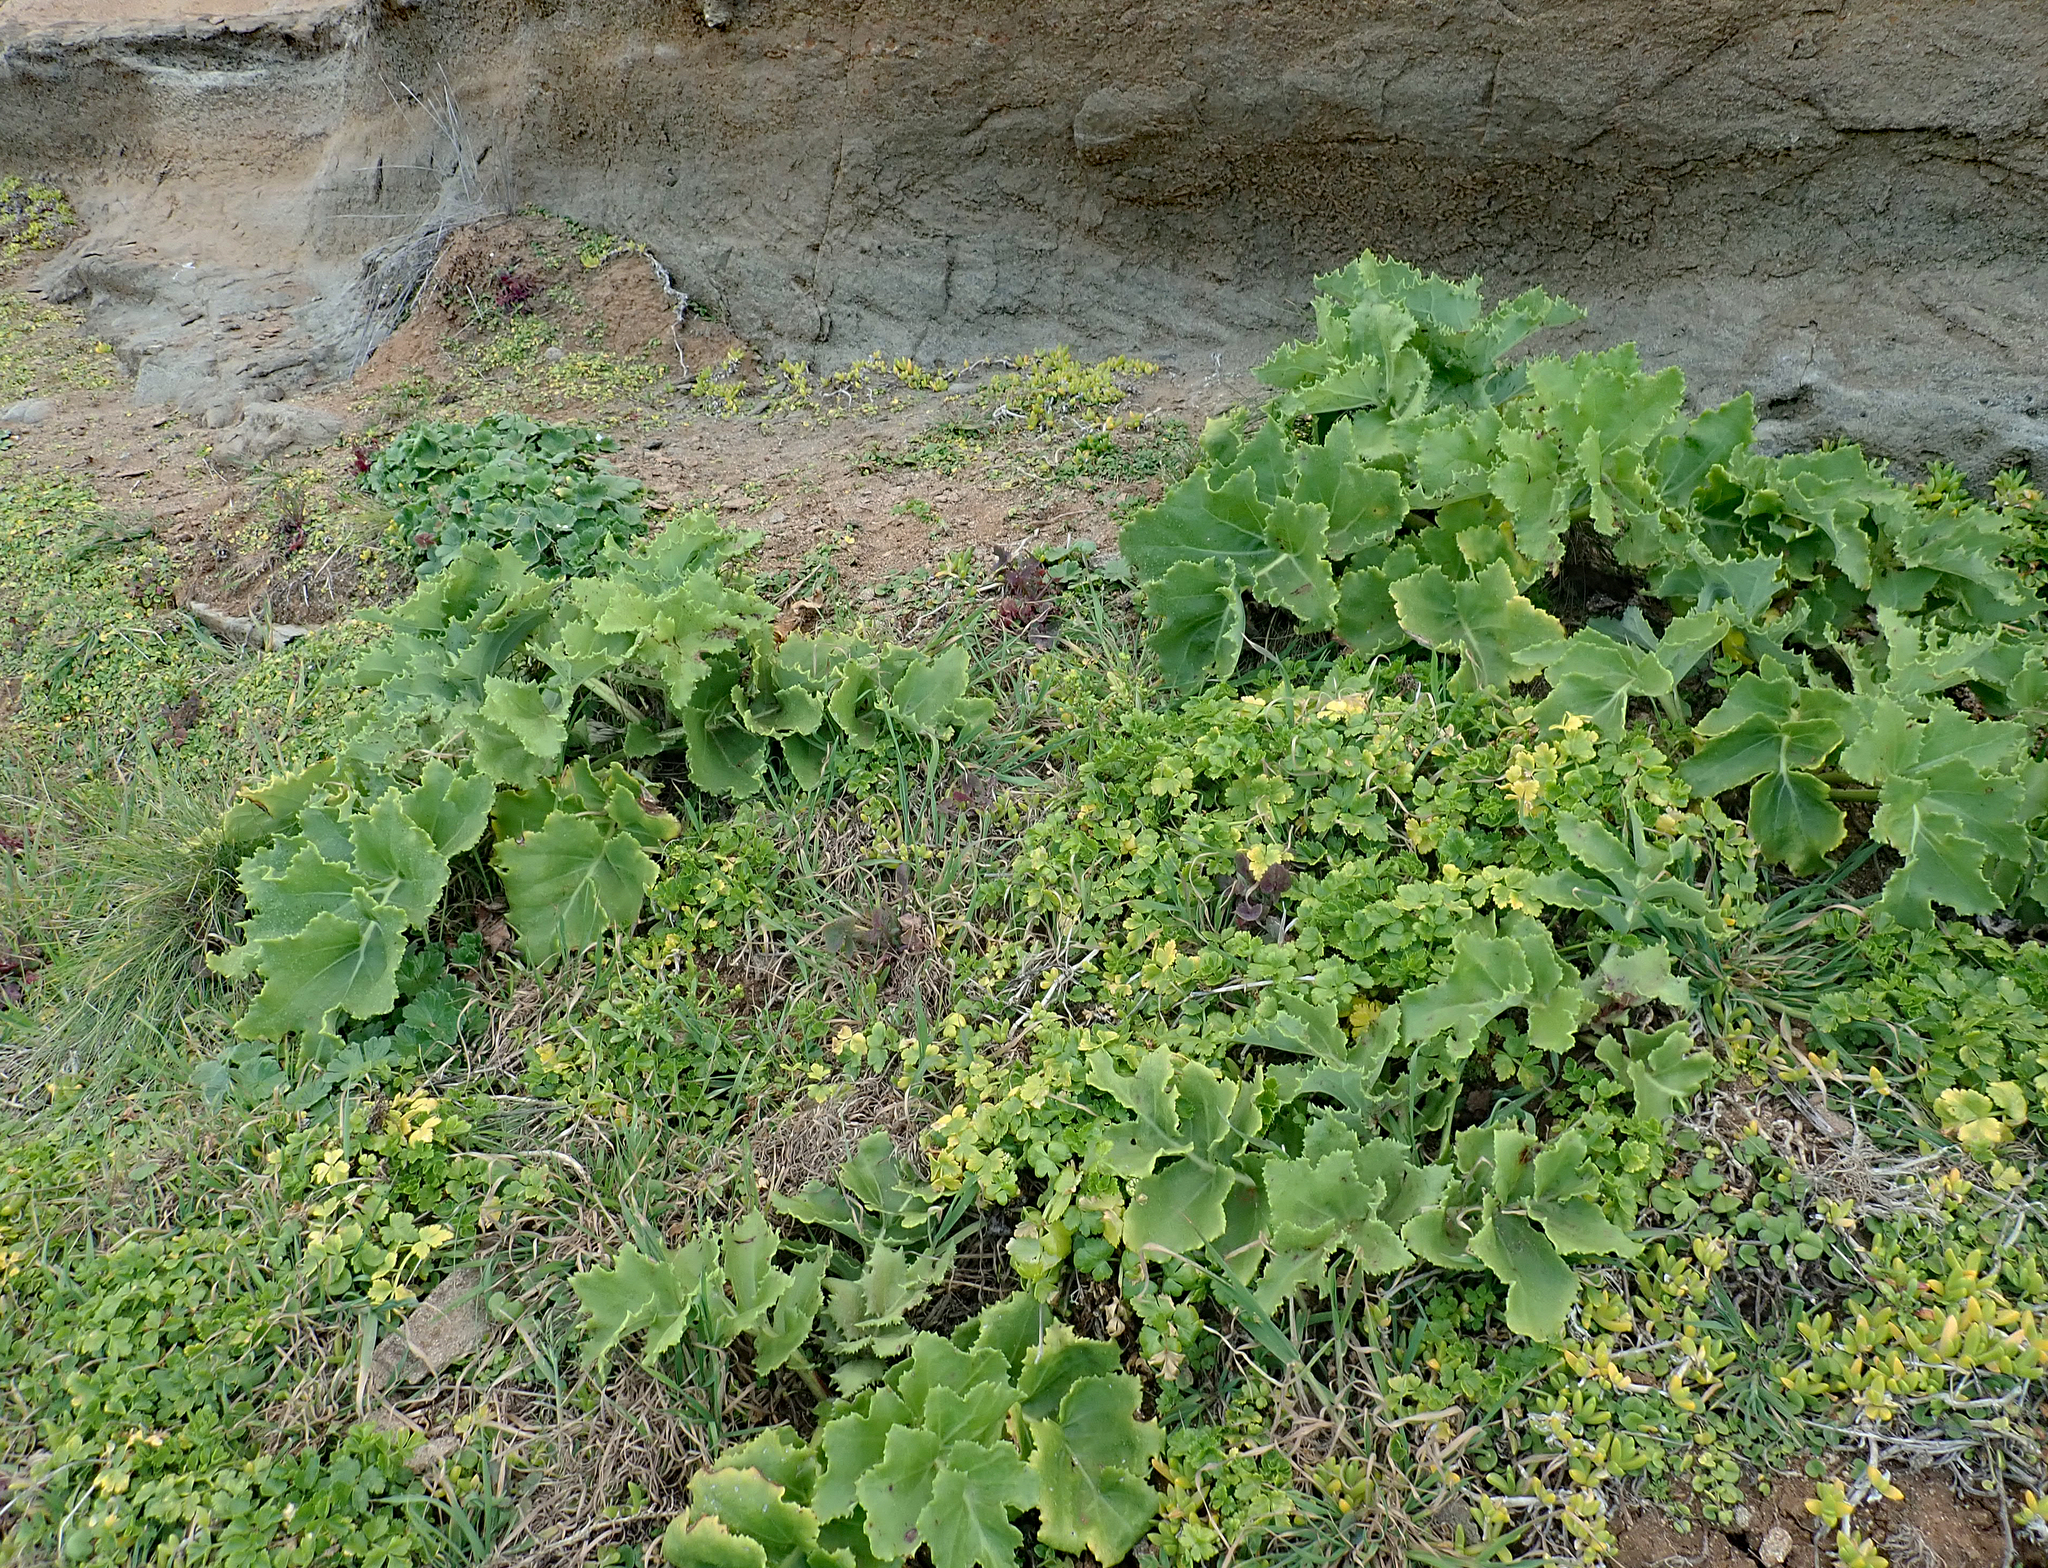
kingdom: Plantae
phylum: Tracheophyta
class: Magnoliopsida
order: Asterales
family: Asteraceae
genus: Sonchus
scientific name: Sonchus grandifolius
